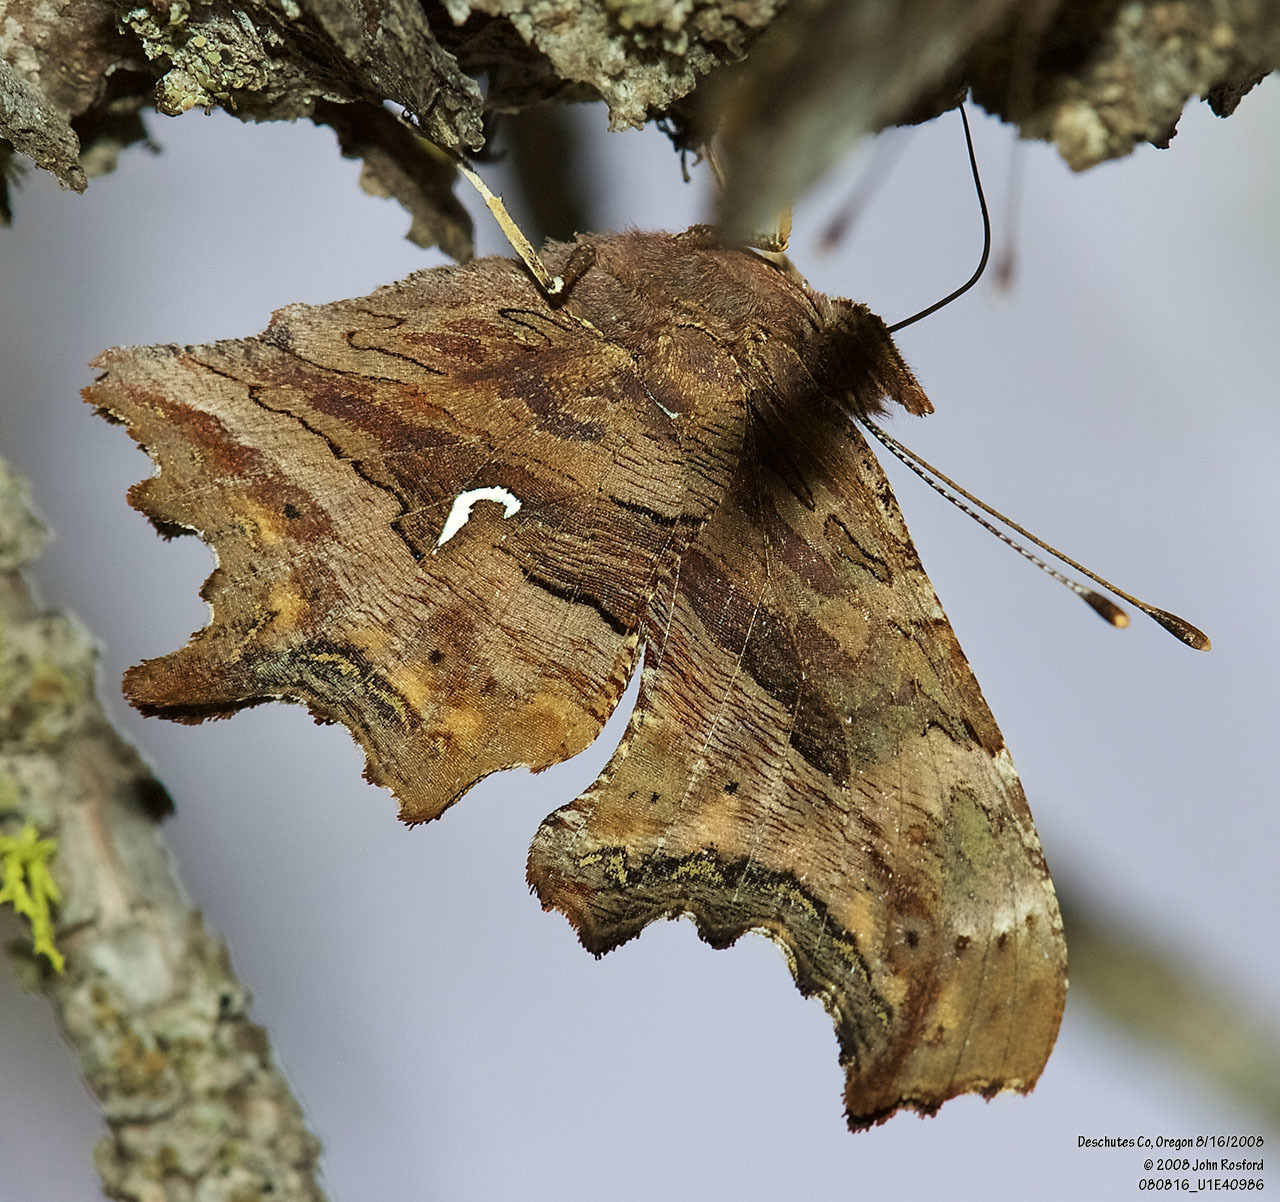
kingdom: Animalia
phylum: Arthropoda
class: Insecta
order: Lepidoptera
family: Nymphalidae
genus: Polygonia
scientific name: Polygonia satyrus
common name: Satyr angle wing
